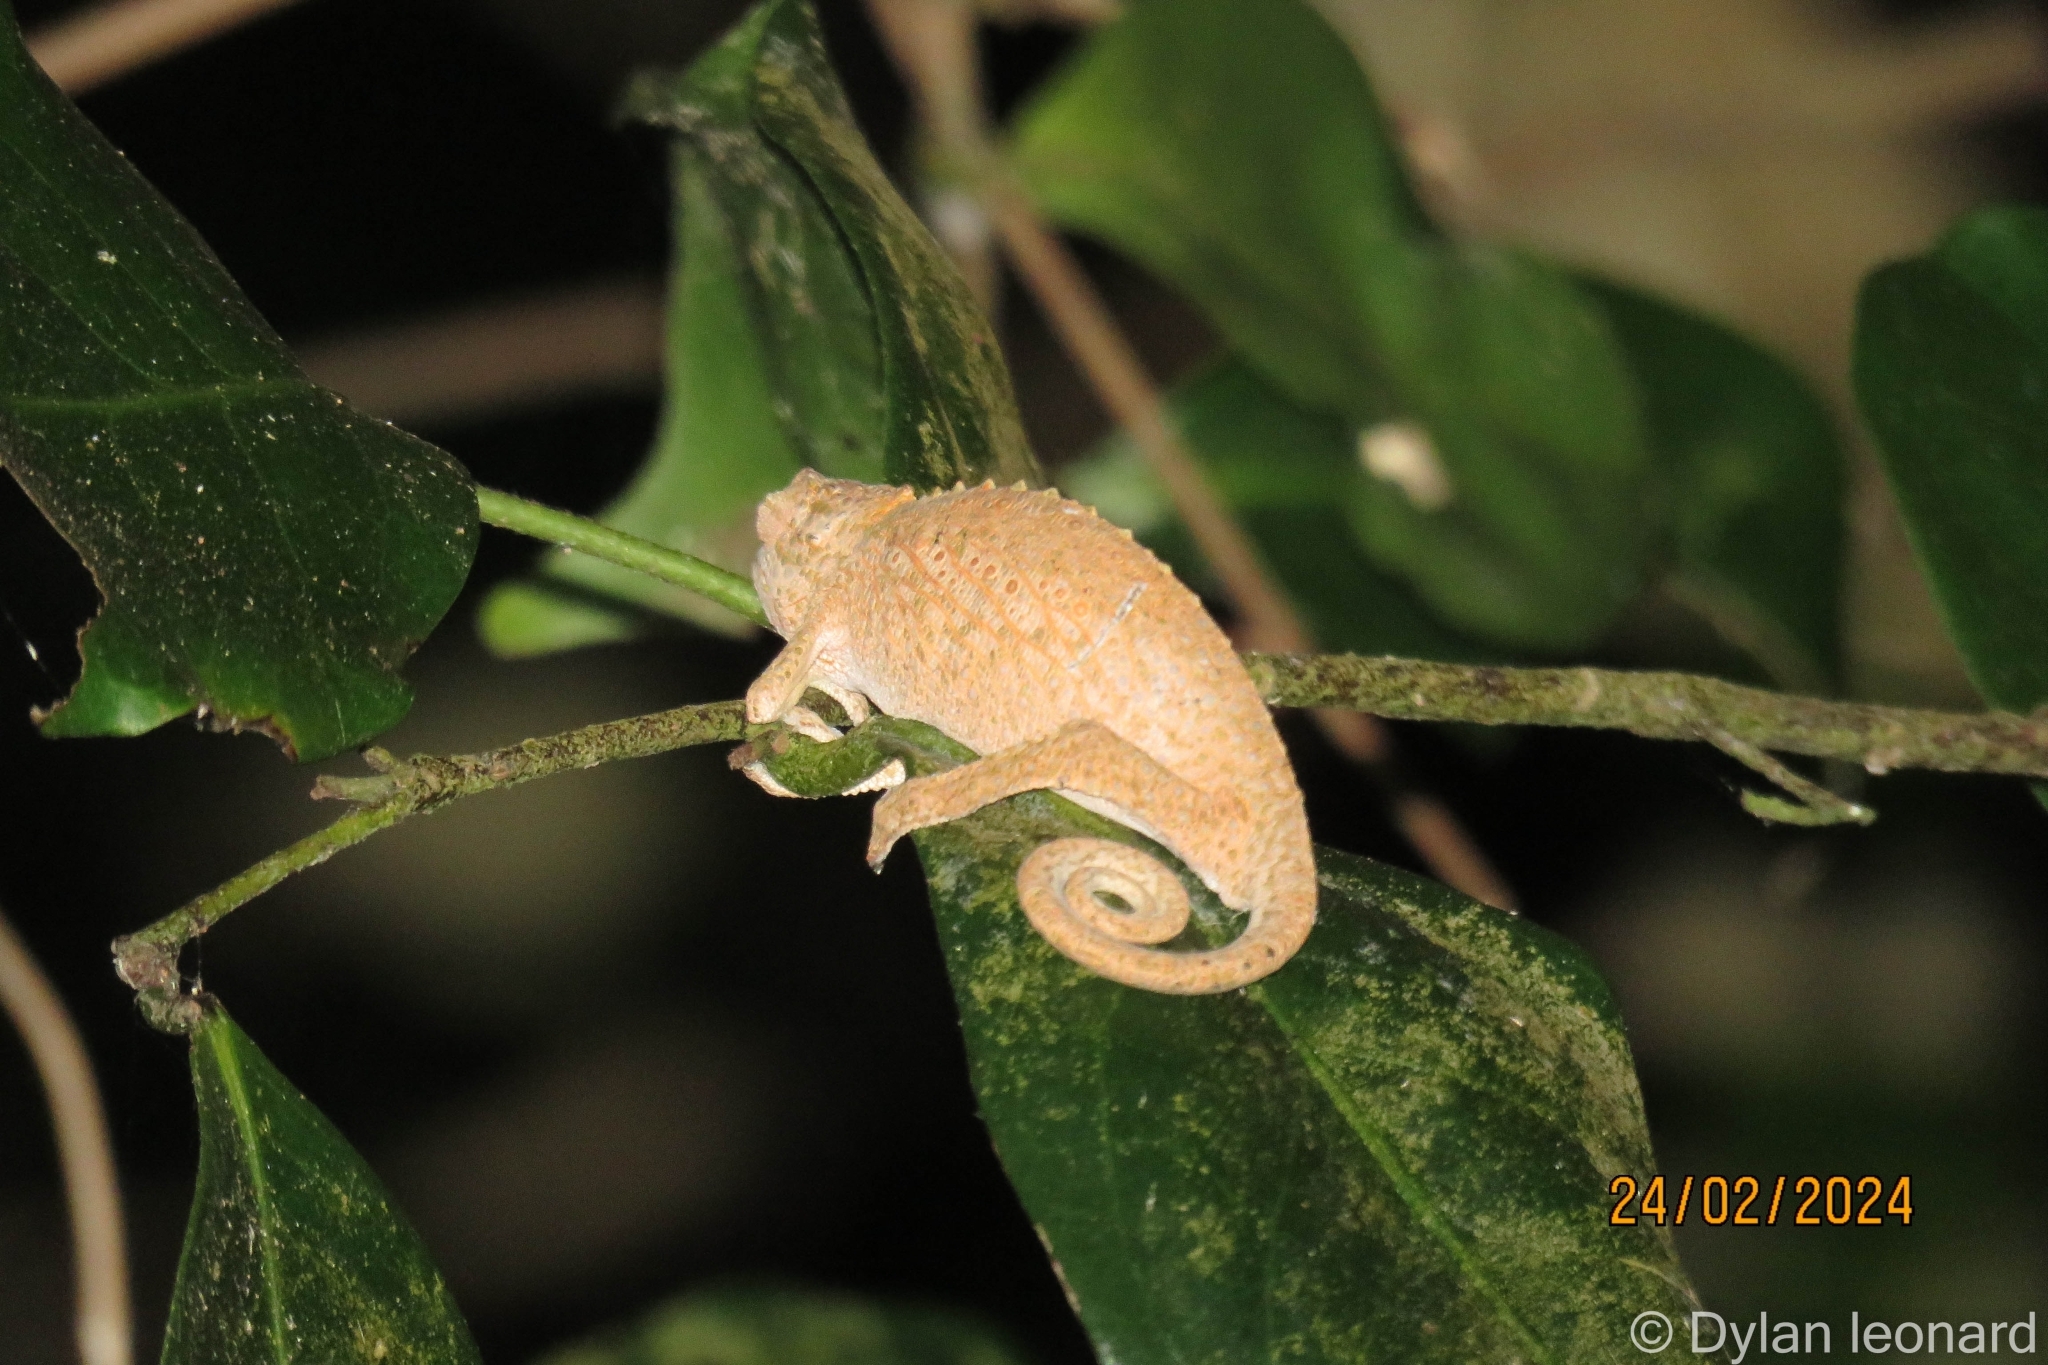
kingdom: Animalia
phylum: Chordata
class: Squamata
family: Chamaeleonidae
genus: Bradypodion
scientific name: Bradypodion setaroi
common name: Setaro's dwarf chameleon
